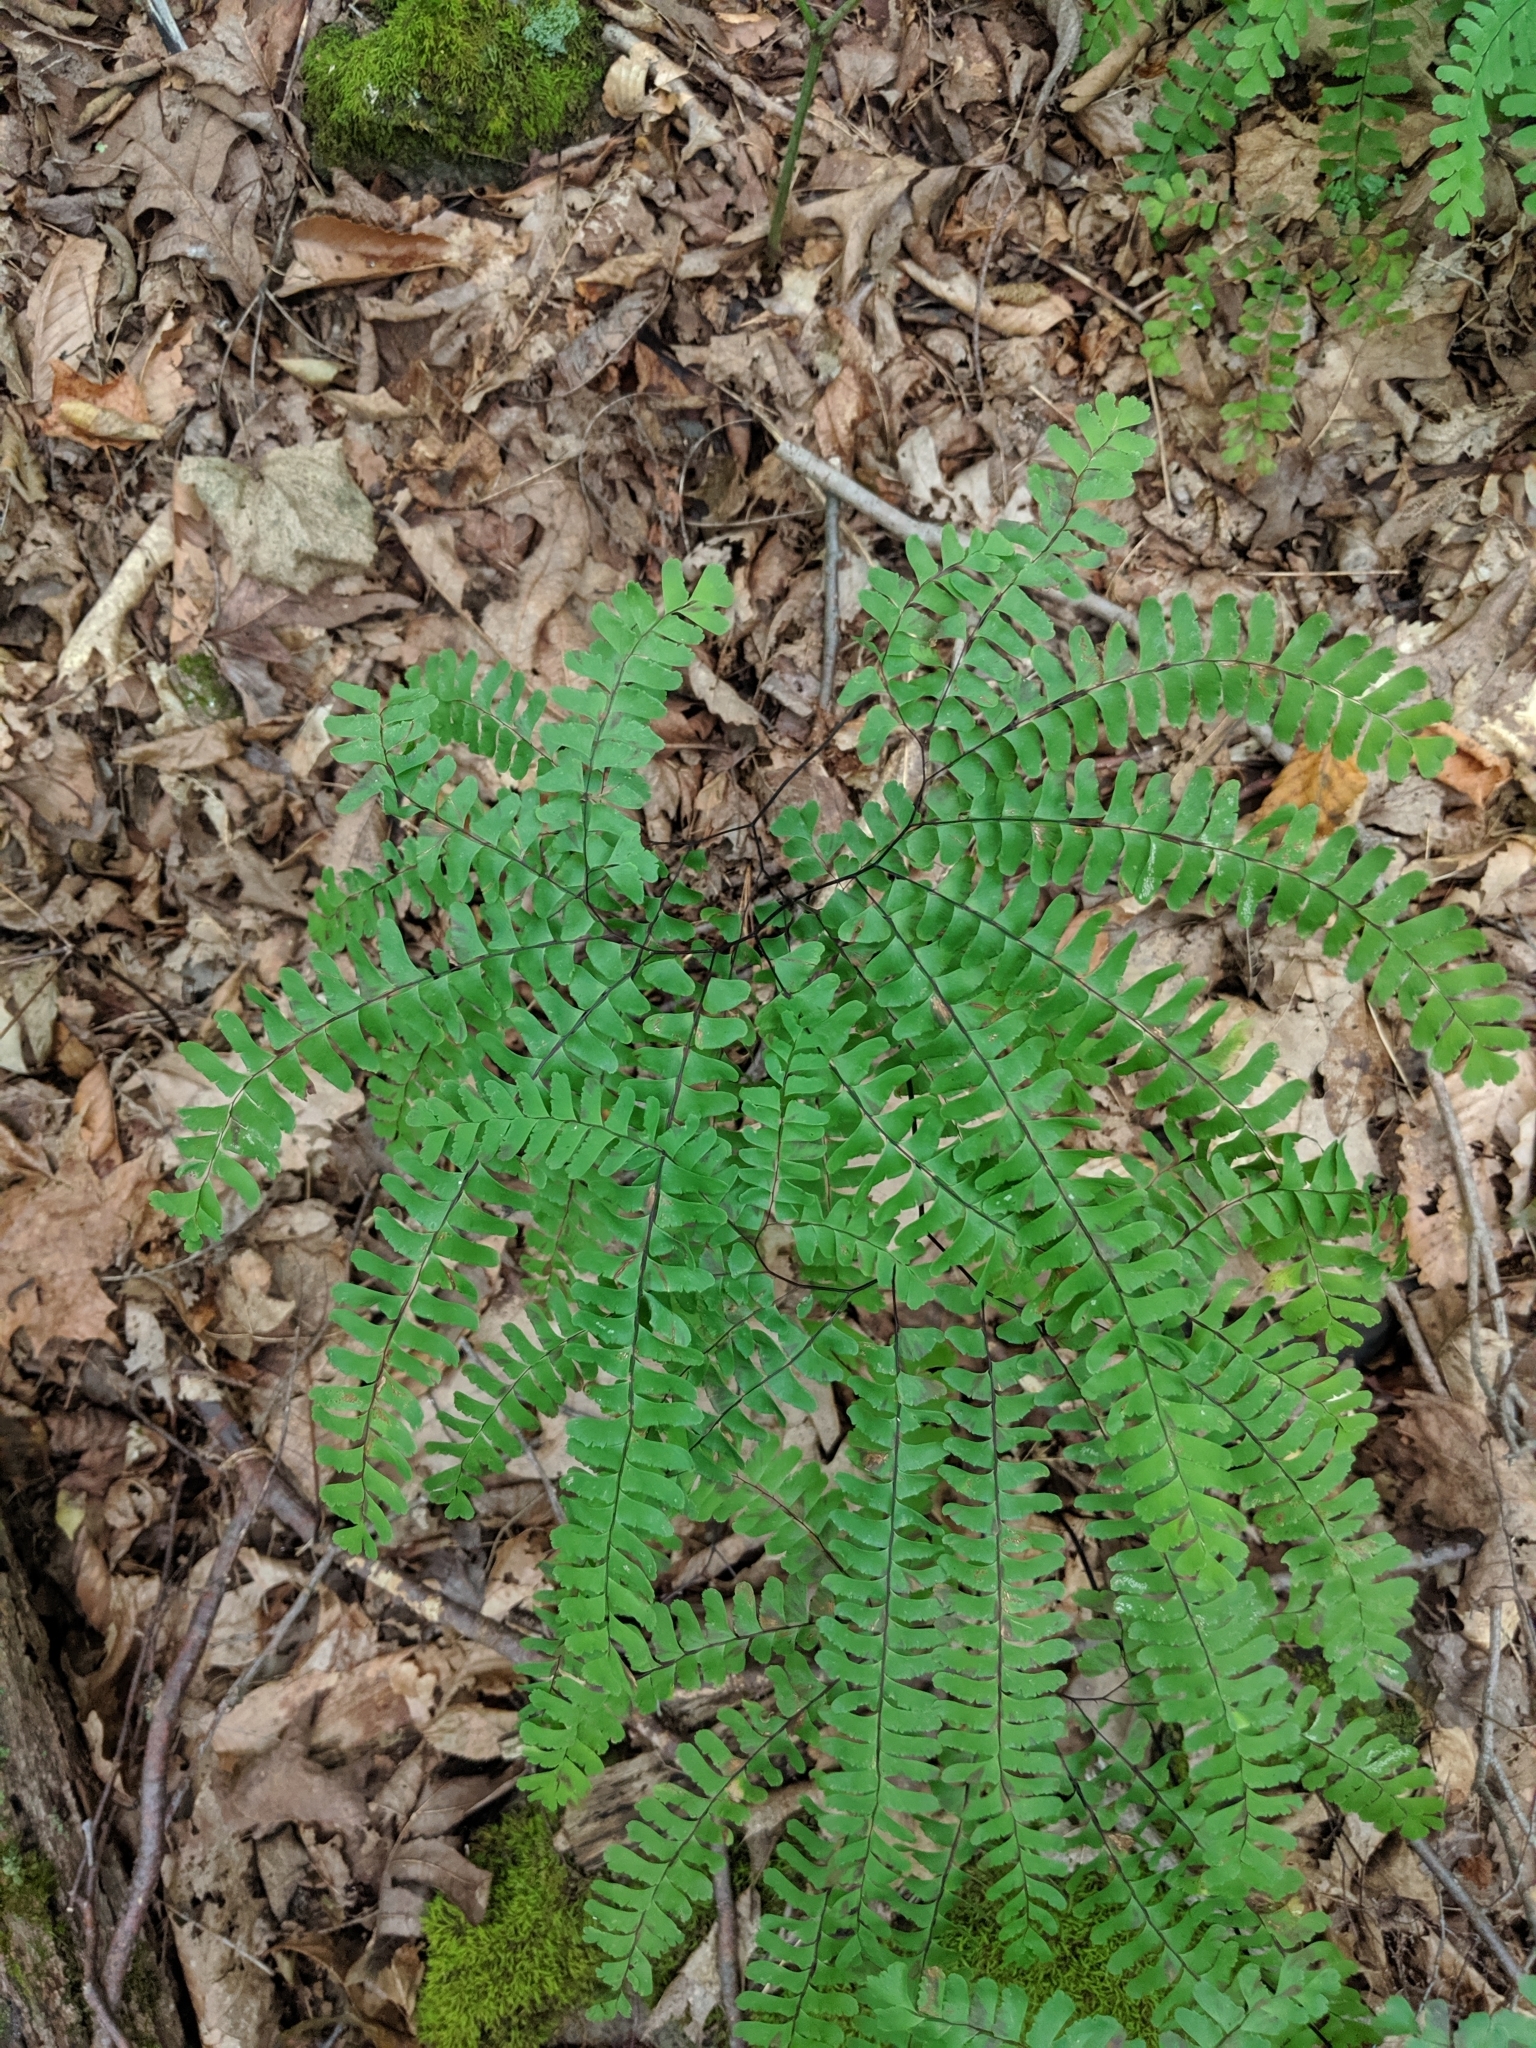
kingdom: Plantae
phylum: Tracheophyta
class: Polypodiopsida
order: Polypodiales
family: Pteridaceae
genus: Adiantum
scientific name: Adiantum pedatum
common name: Five-finger fern
